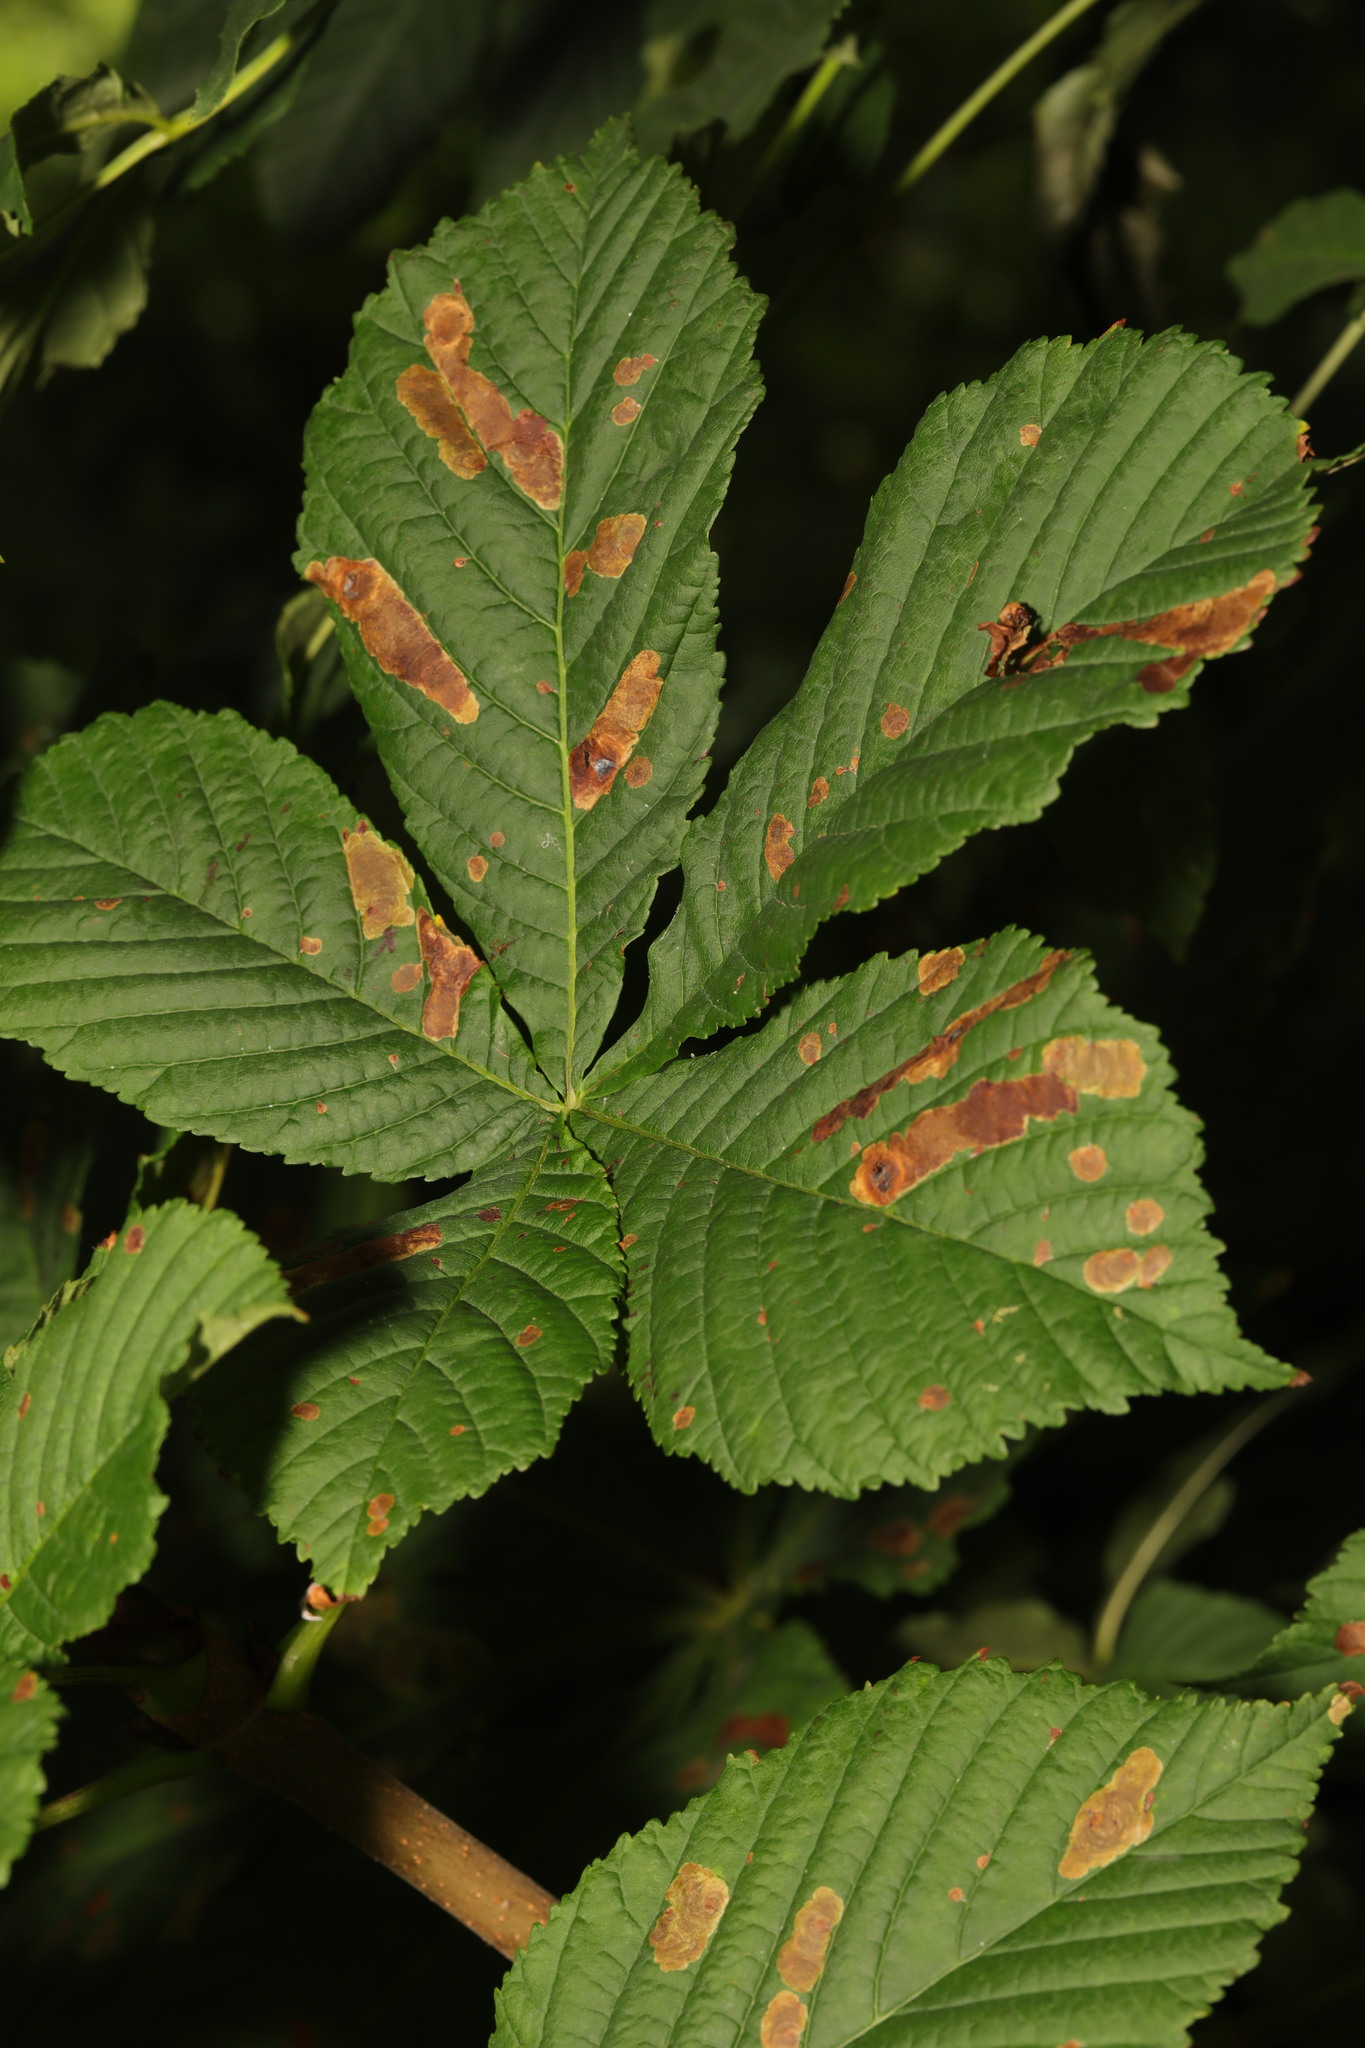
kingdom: Plantae
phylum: Tracheophyta
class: Magnoliopsida
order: Sapindales
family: Sapindaceae
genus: Aesculus
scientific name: Aesculus hippocastanum
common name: Horse-chestnut
